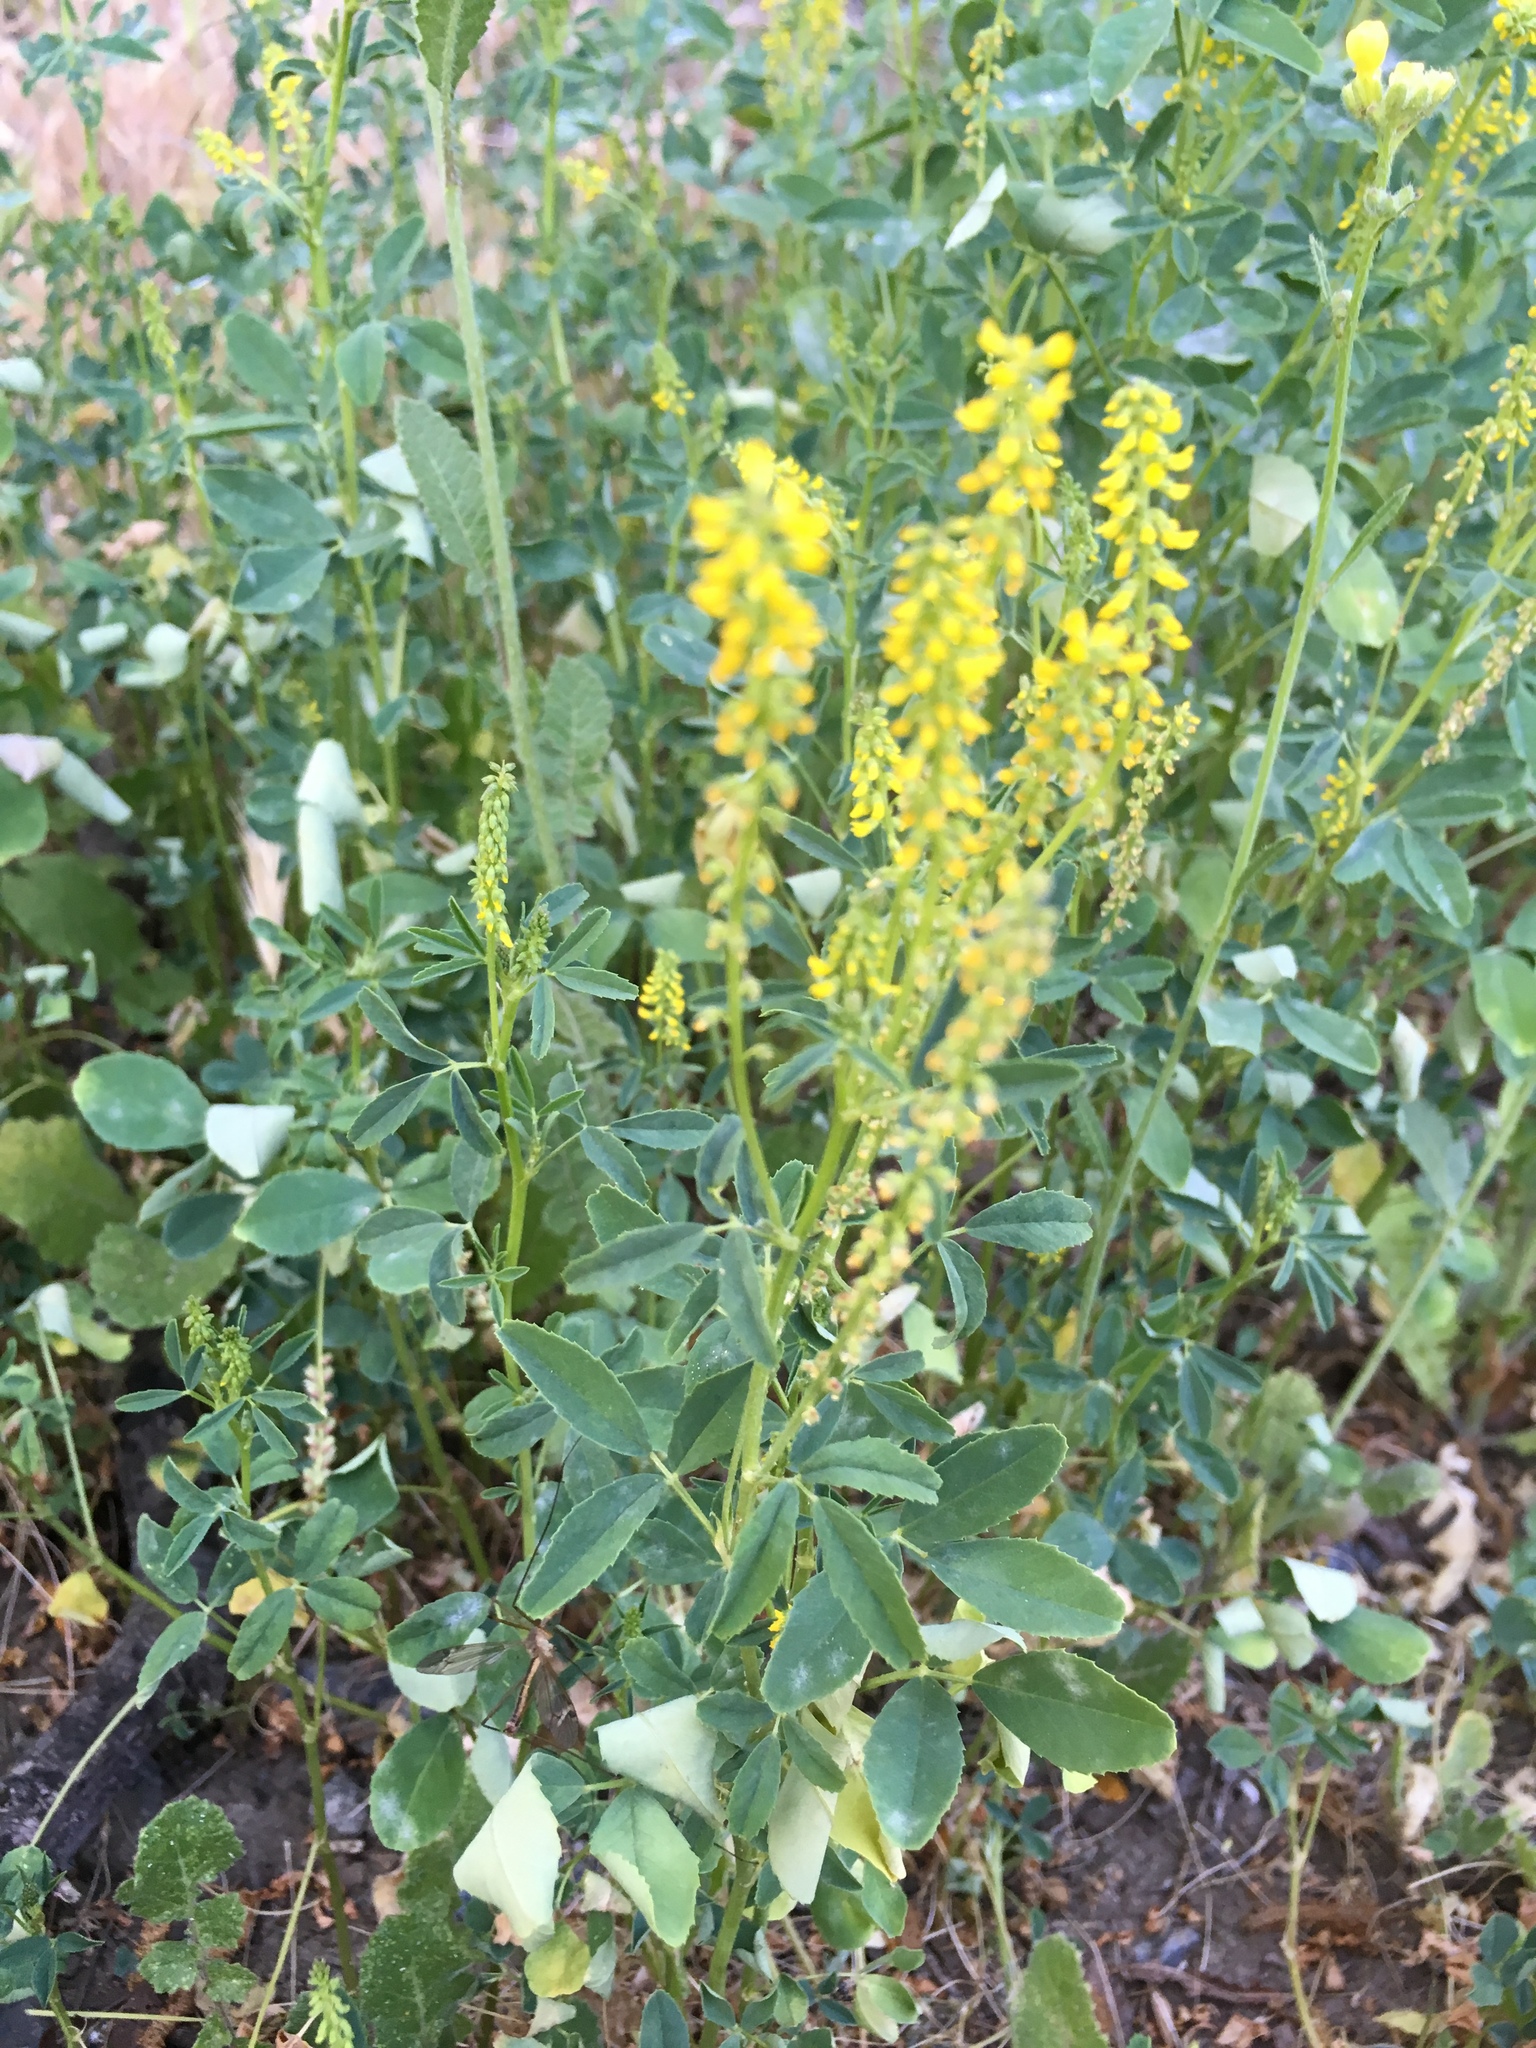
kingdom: Plantae
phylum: Tracheophyta
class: Magnoliopsida
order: Fabales
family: Fabaceae
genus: Melilotus
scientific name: Melilotus indicus
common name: Small melilot
